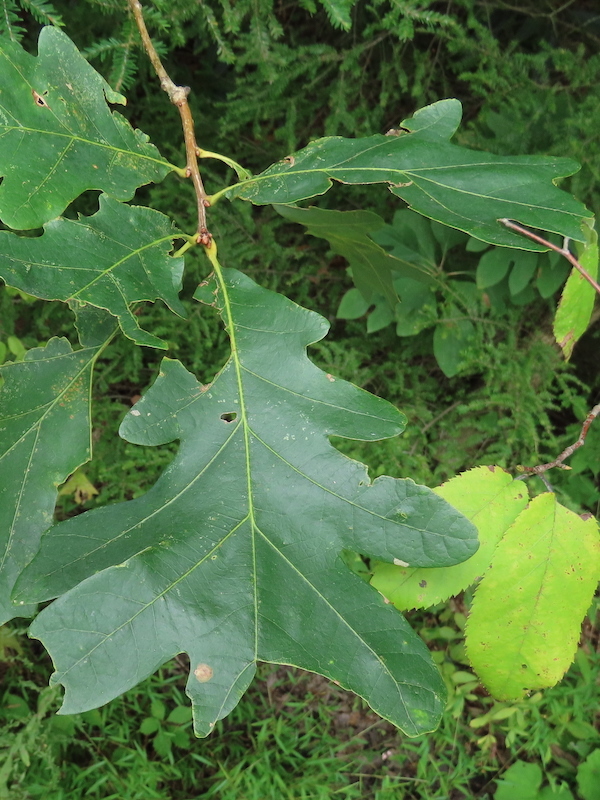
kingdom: Animalia
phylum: Arthropoda
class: Insecta
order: Hymenoptera
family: Cynipidae
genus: Acraspis
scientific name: Acraspis erinacei
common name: Hedgehog gall wasp
